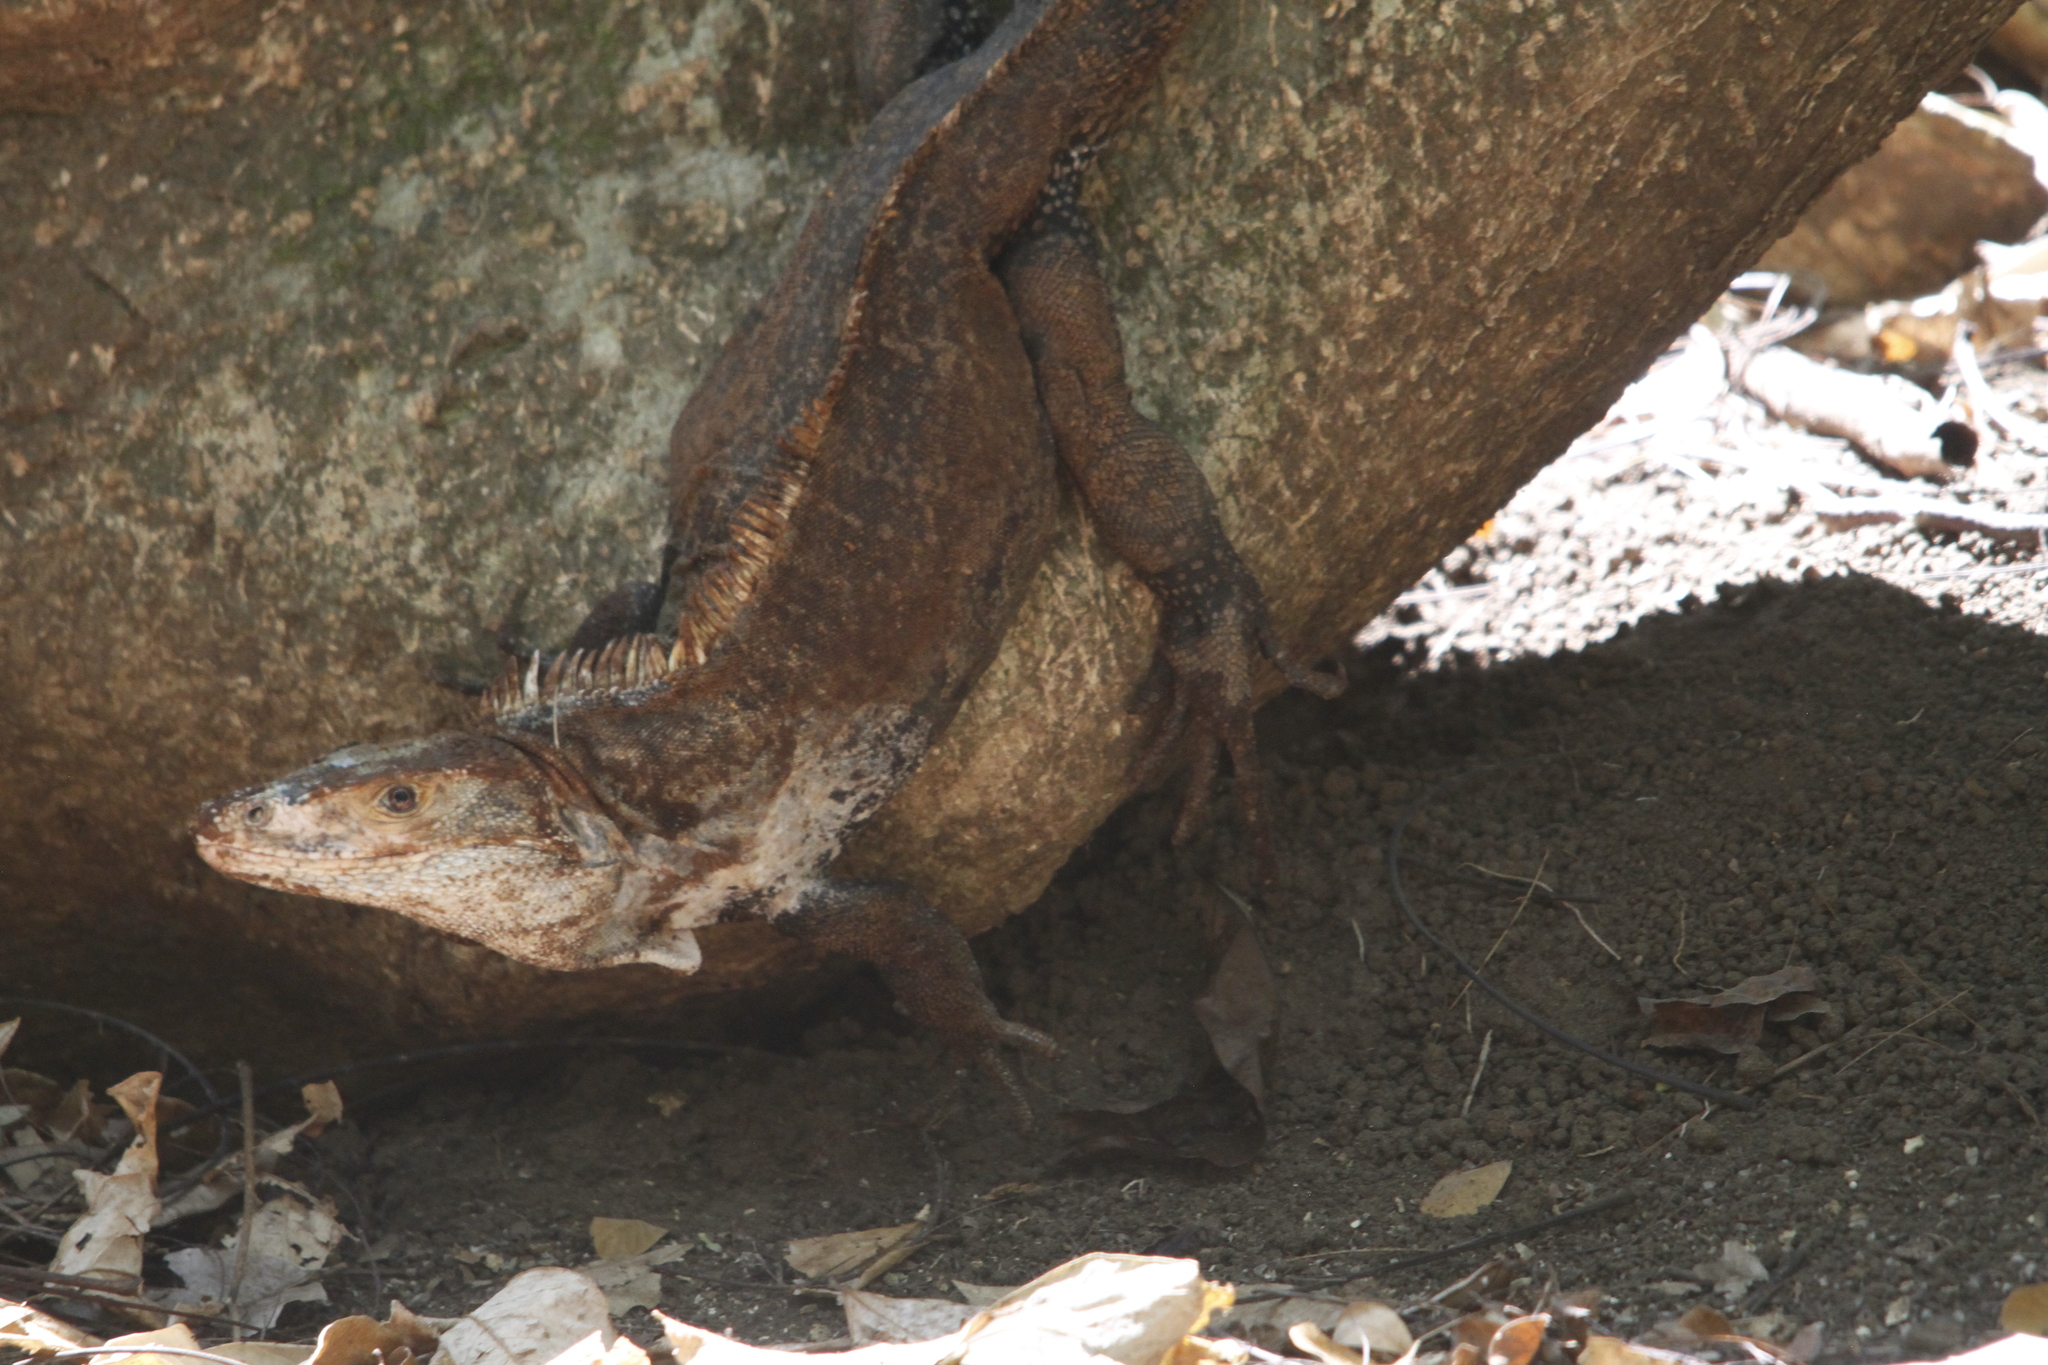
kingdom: Animalia
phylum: Chordata
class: Squamata
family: Iguanidae
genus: Ctenosaura
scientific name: Ctenosaura similis
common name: Black spiny-tailed iguana
